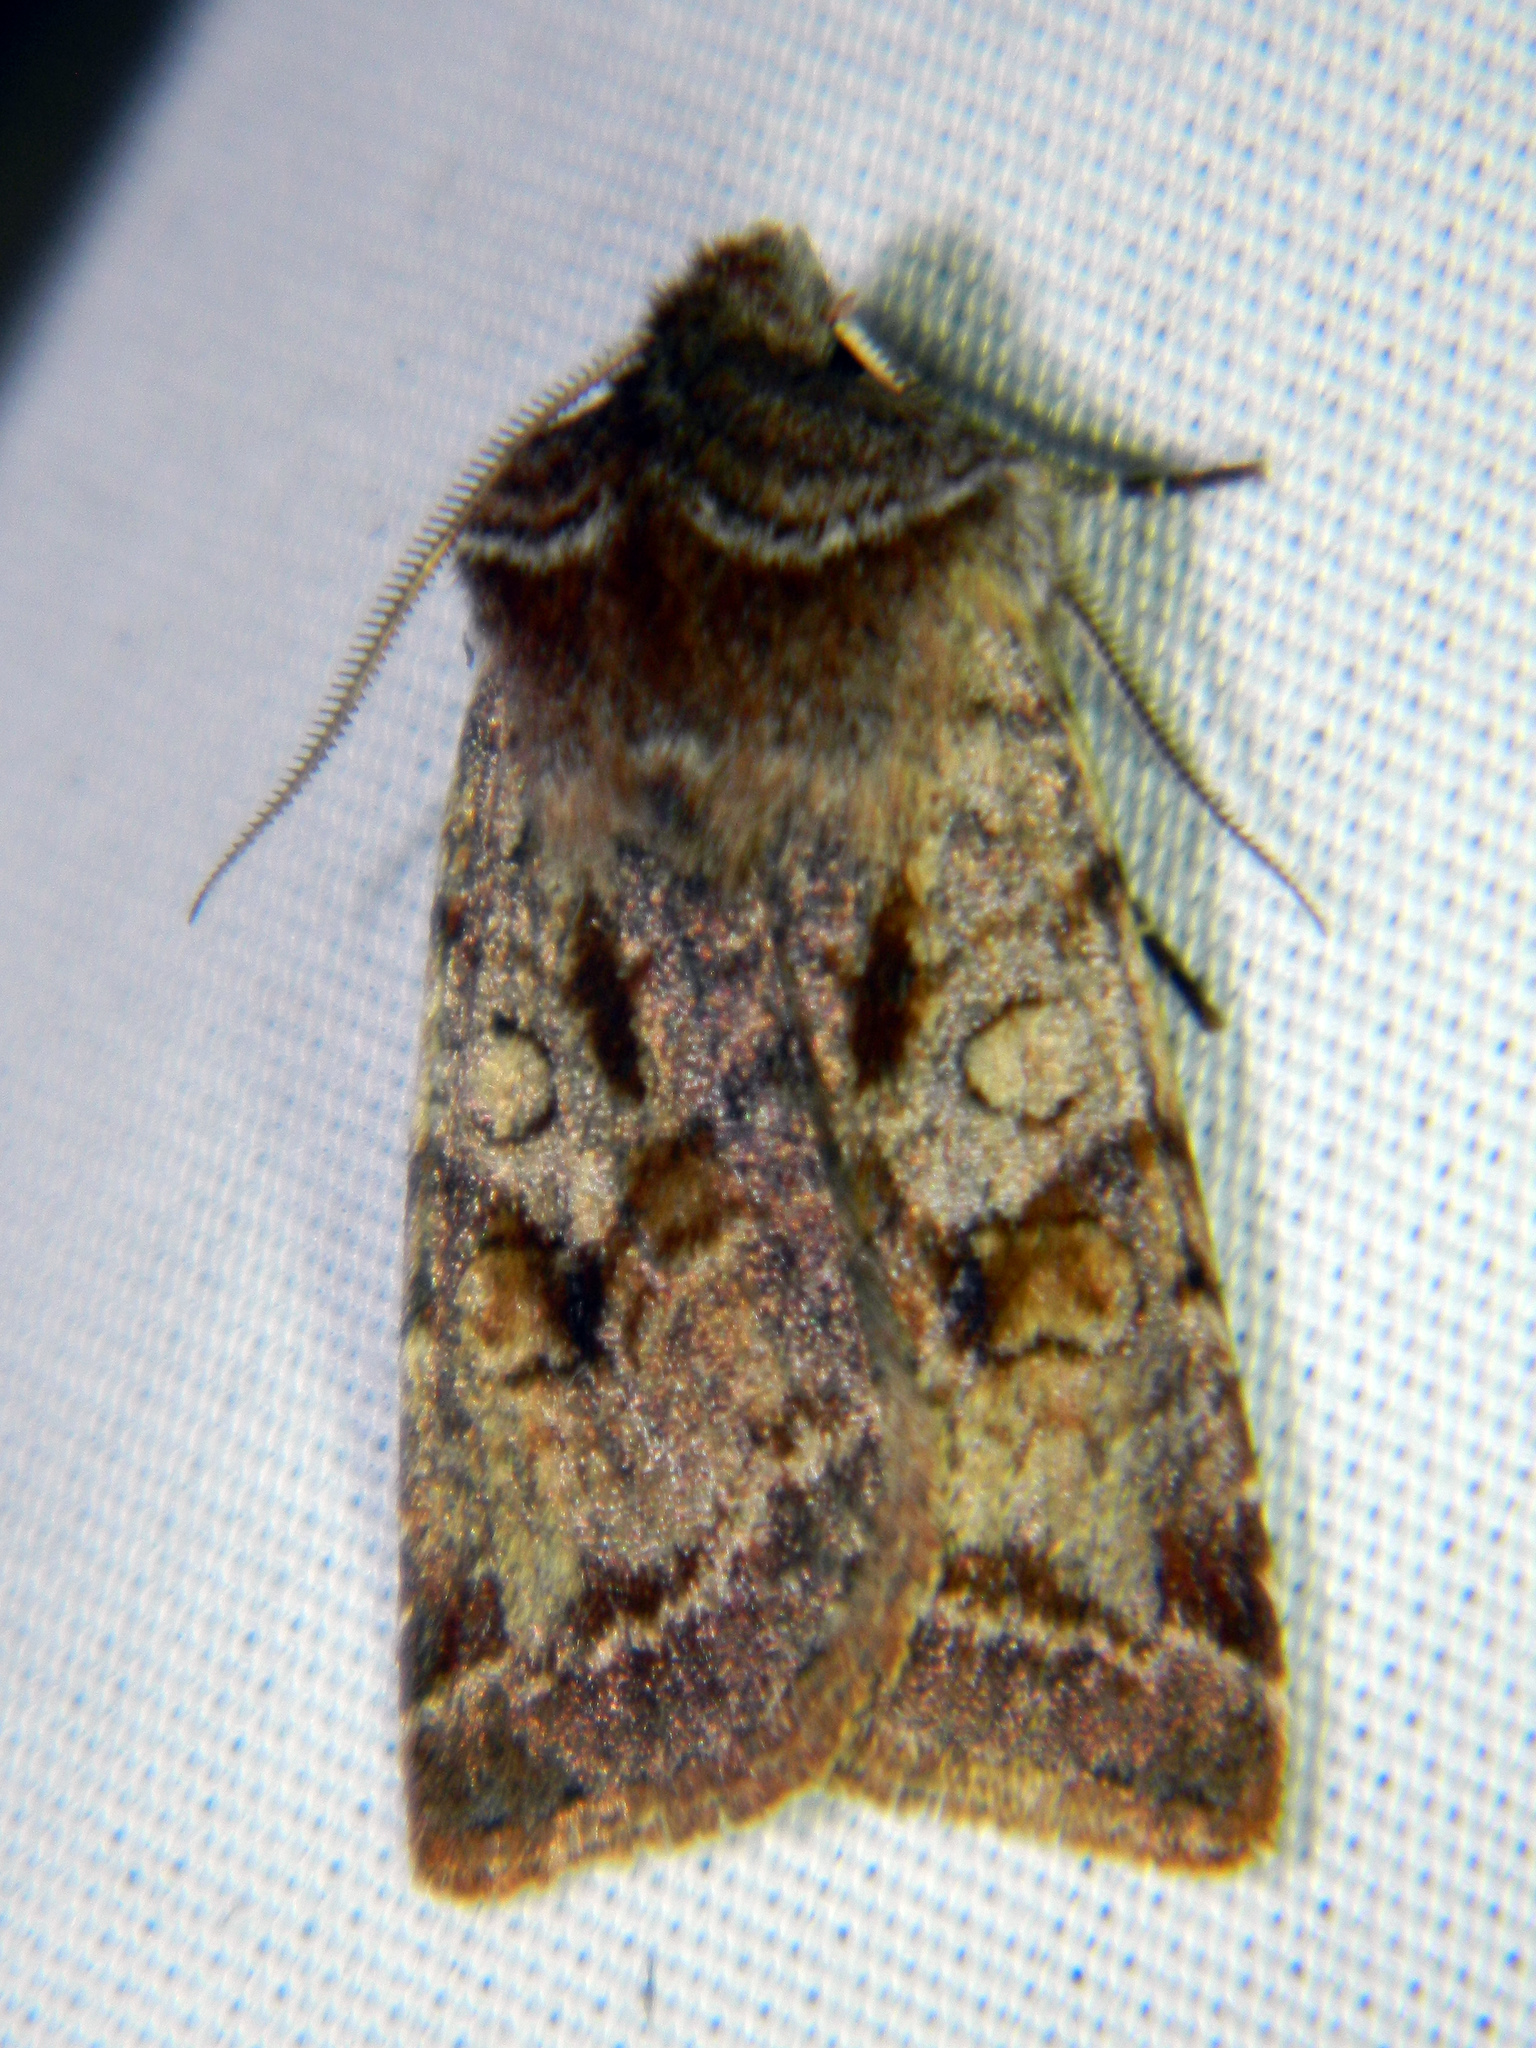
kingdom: Animalia
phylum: Arthropoda
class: Insecta
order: Lepidoptera
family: Noctuidae
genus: Cerastis
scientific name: Cerastis salicarum
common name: Willow dart
